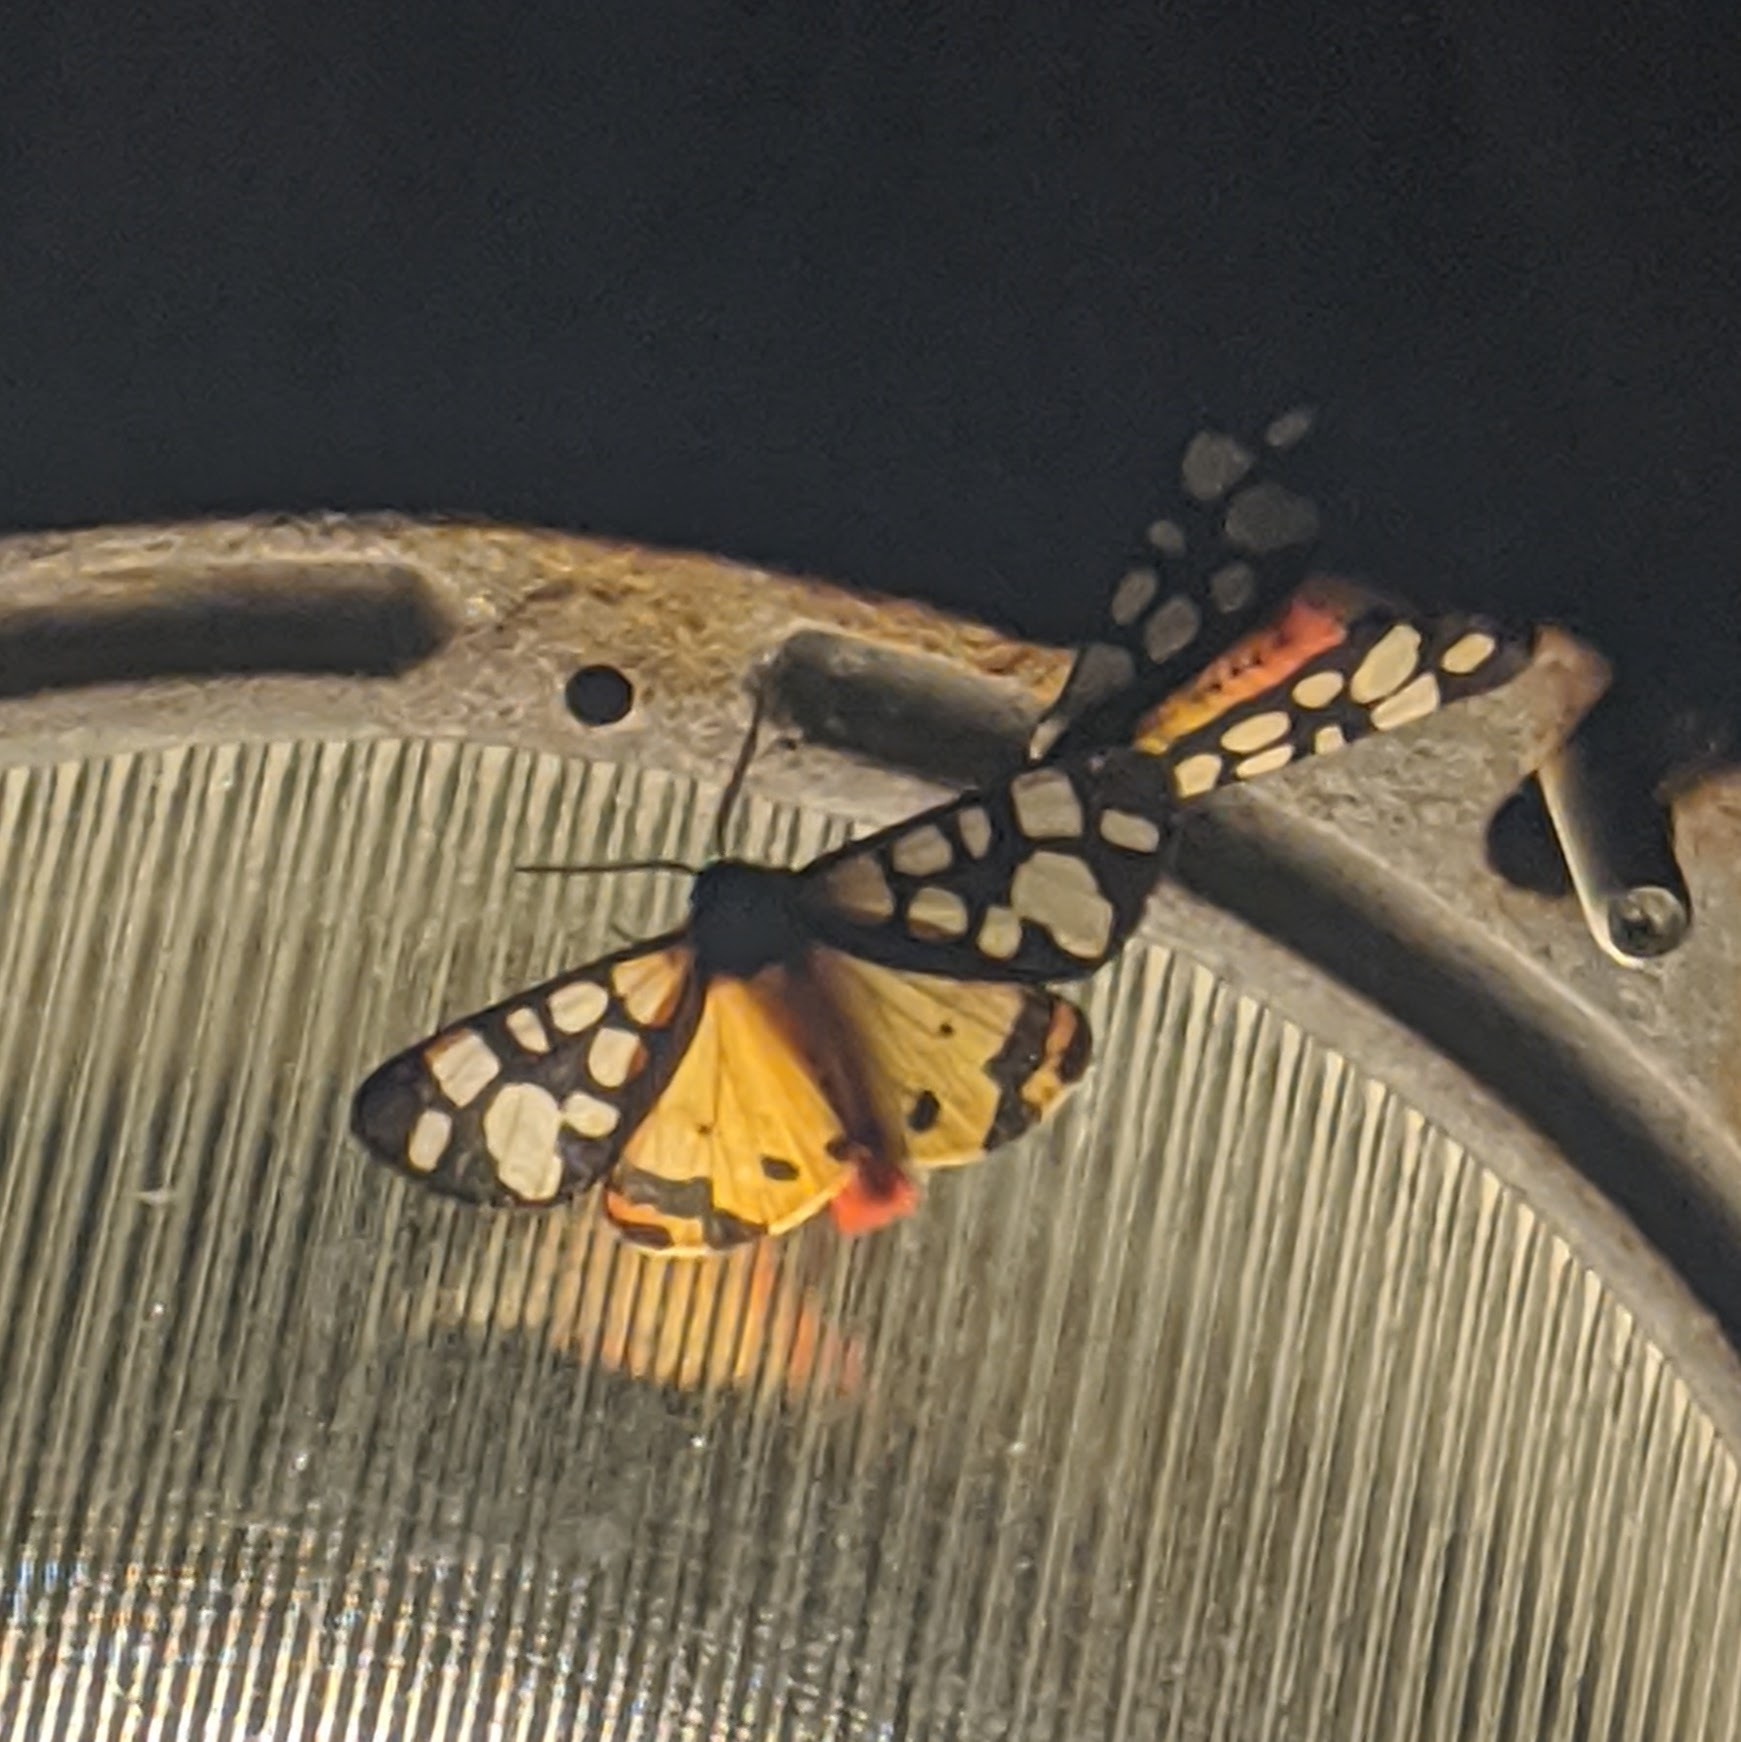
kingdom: Animalia
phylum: Arthropoda
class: Insecta
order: Lepidoptera
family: Erebidae
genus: Epicallia
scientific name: Epicallia villica
